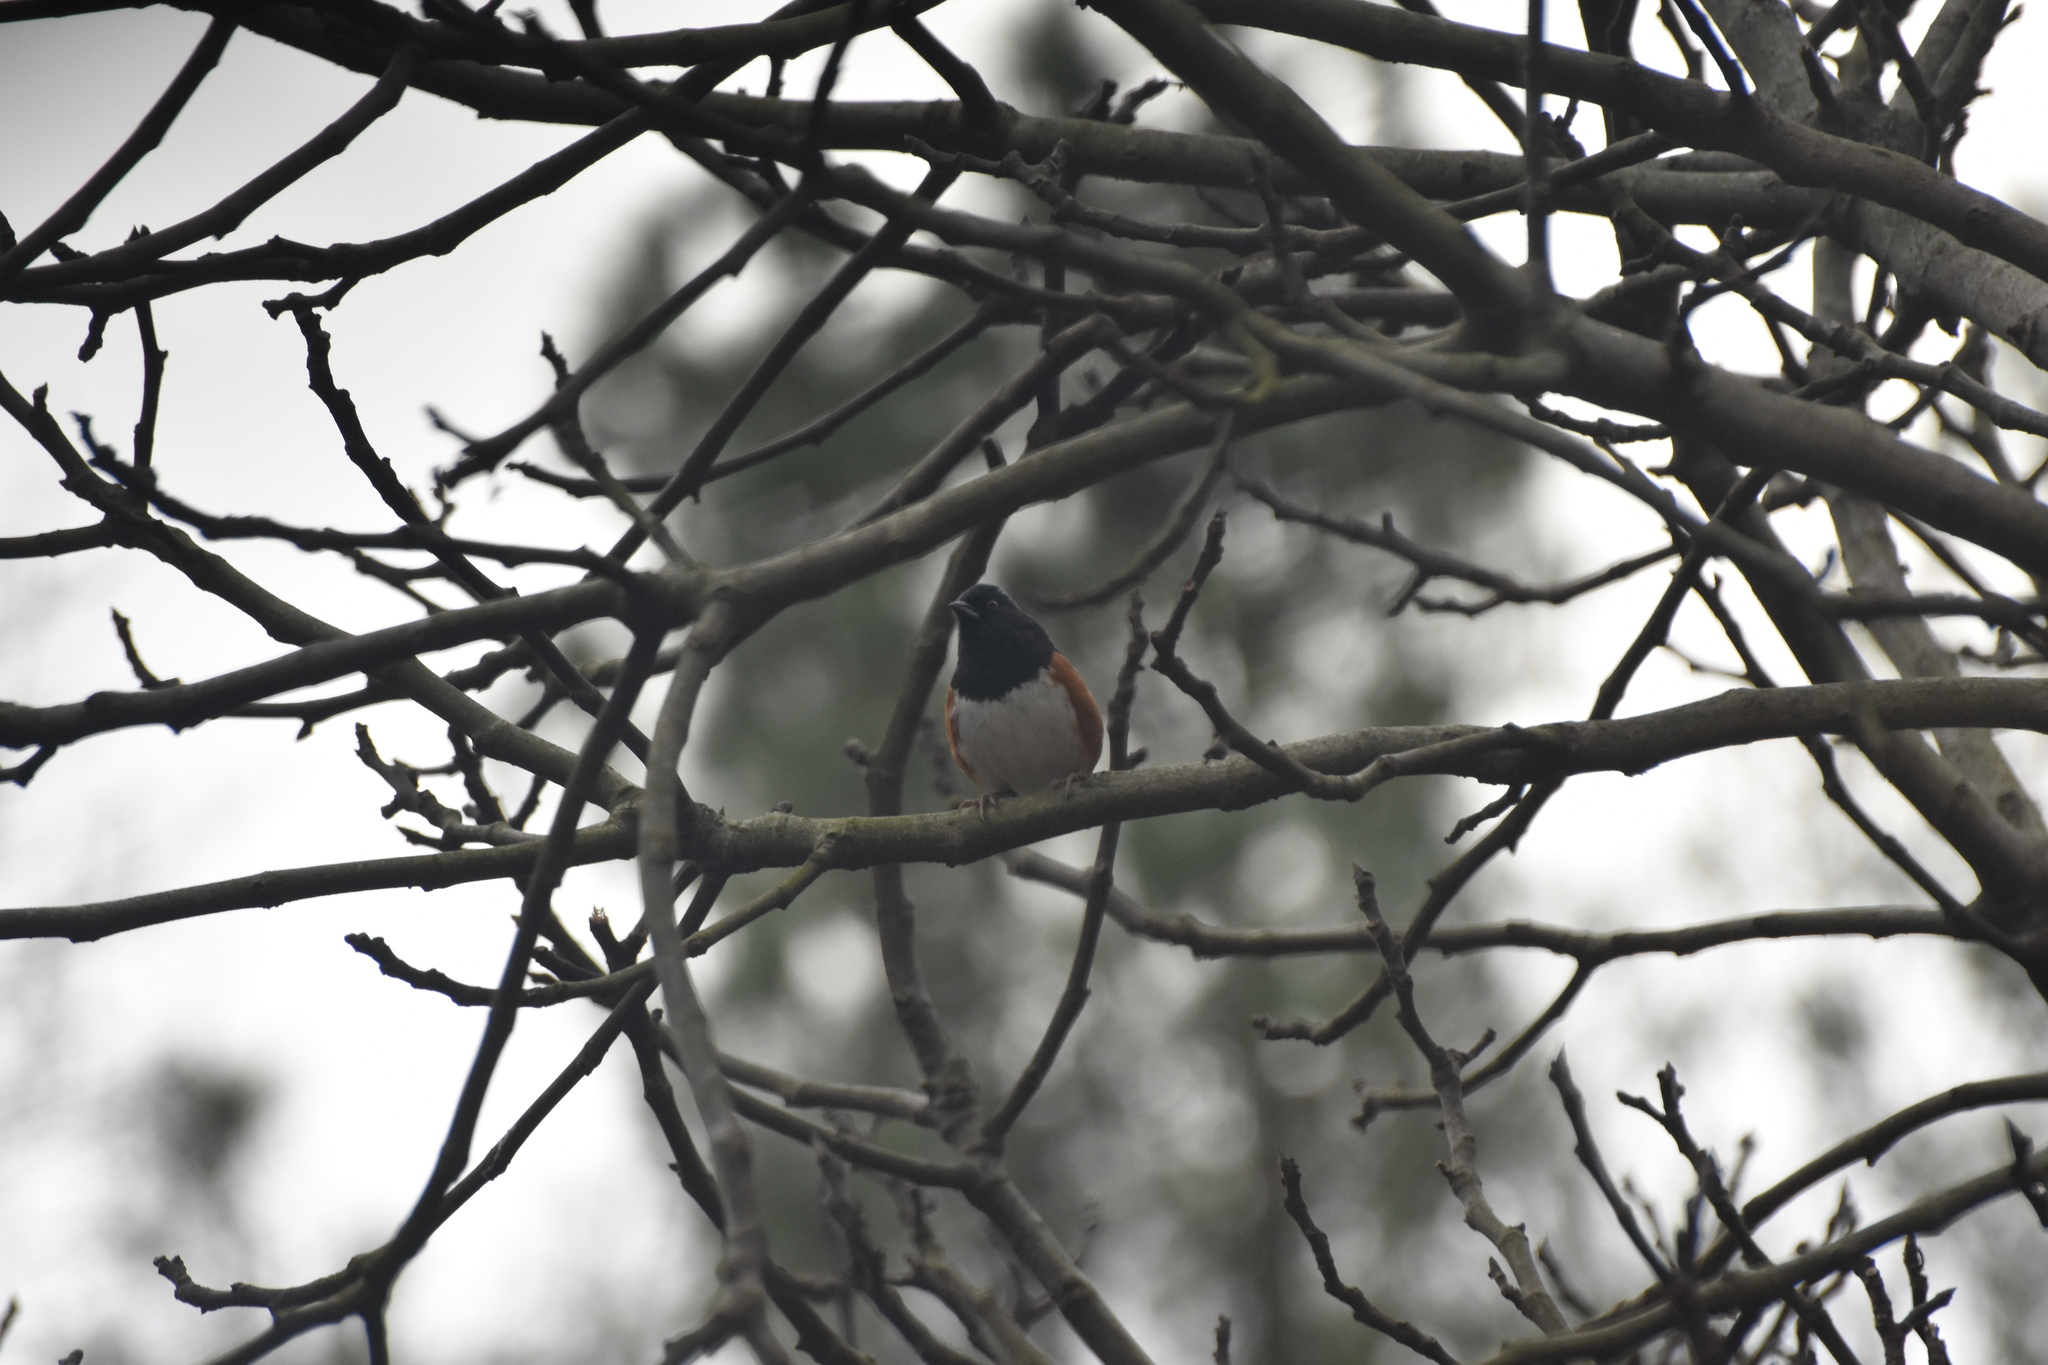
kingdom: Animalia
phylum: Chordata
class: Aves
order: Passeriformes
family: Passerellidae
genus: Pipilo
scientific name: Pipilo erythrophthalmus
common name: Eastern towhee
